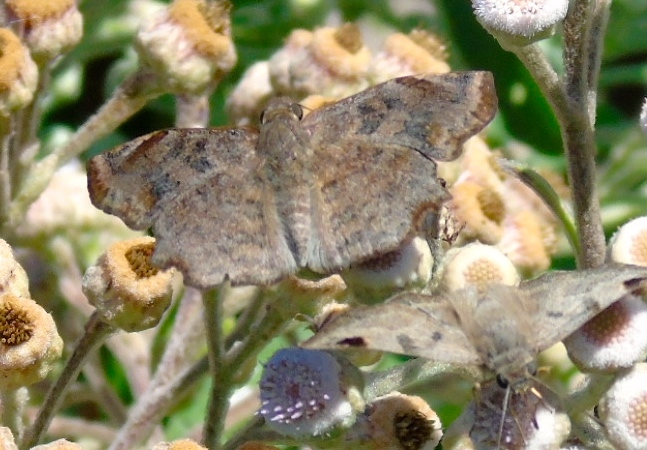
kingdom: Animalia
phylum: Arthropoda
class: Insecta
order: Lepidoptera
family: Hesperiidae
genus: Antigonus
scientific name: Antigonus erosus
